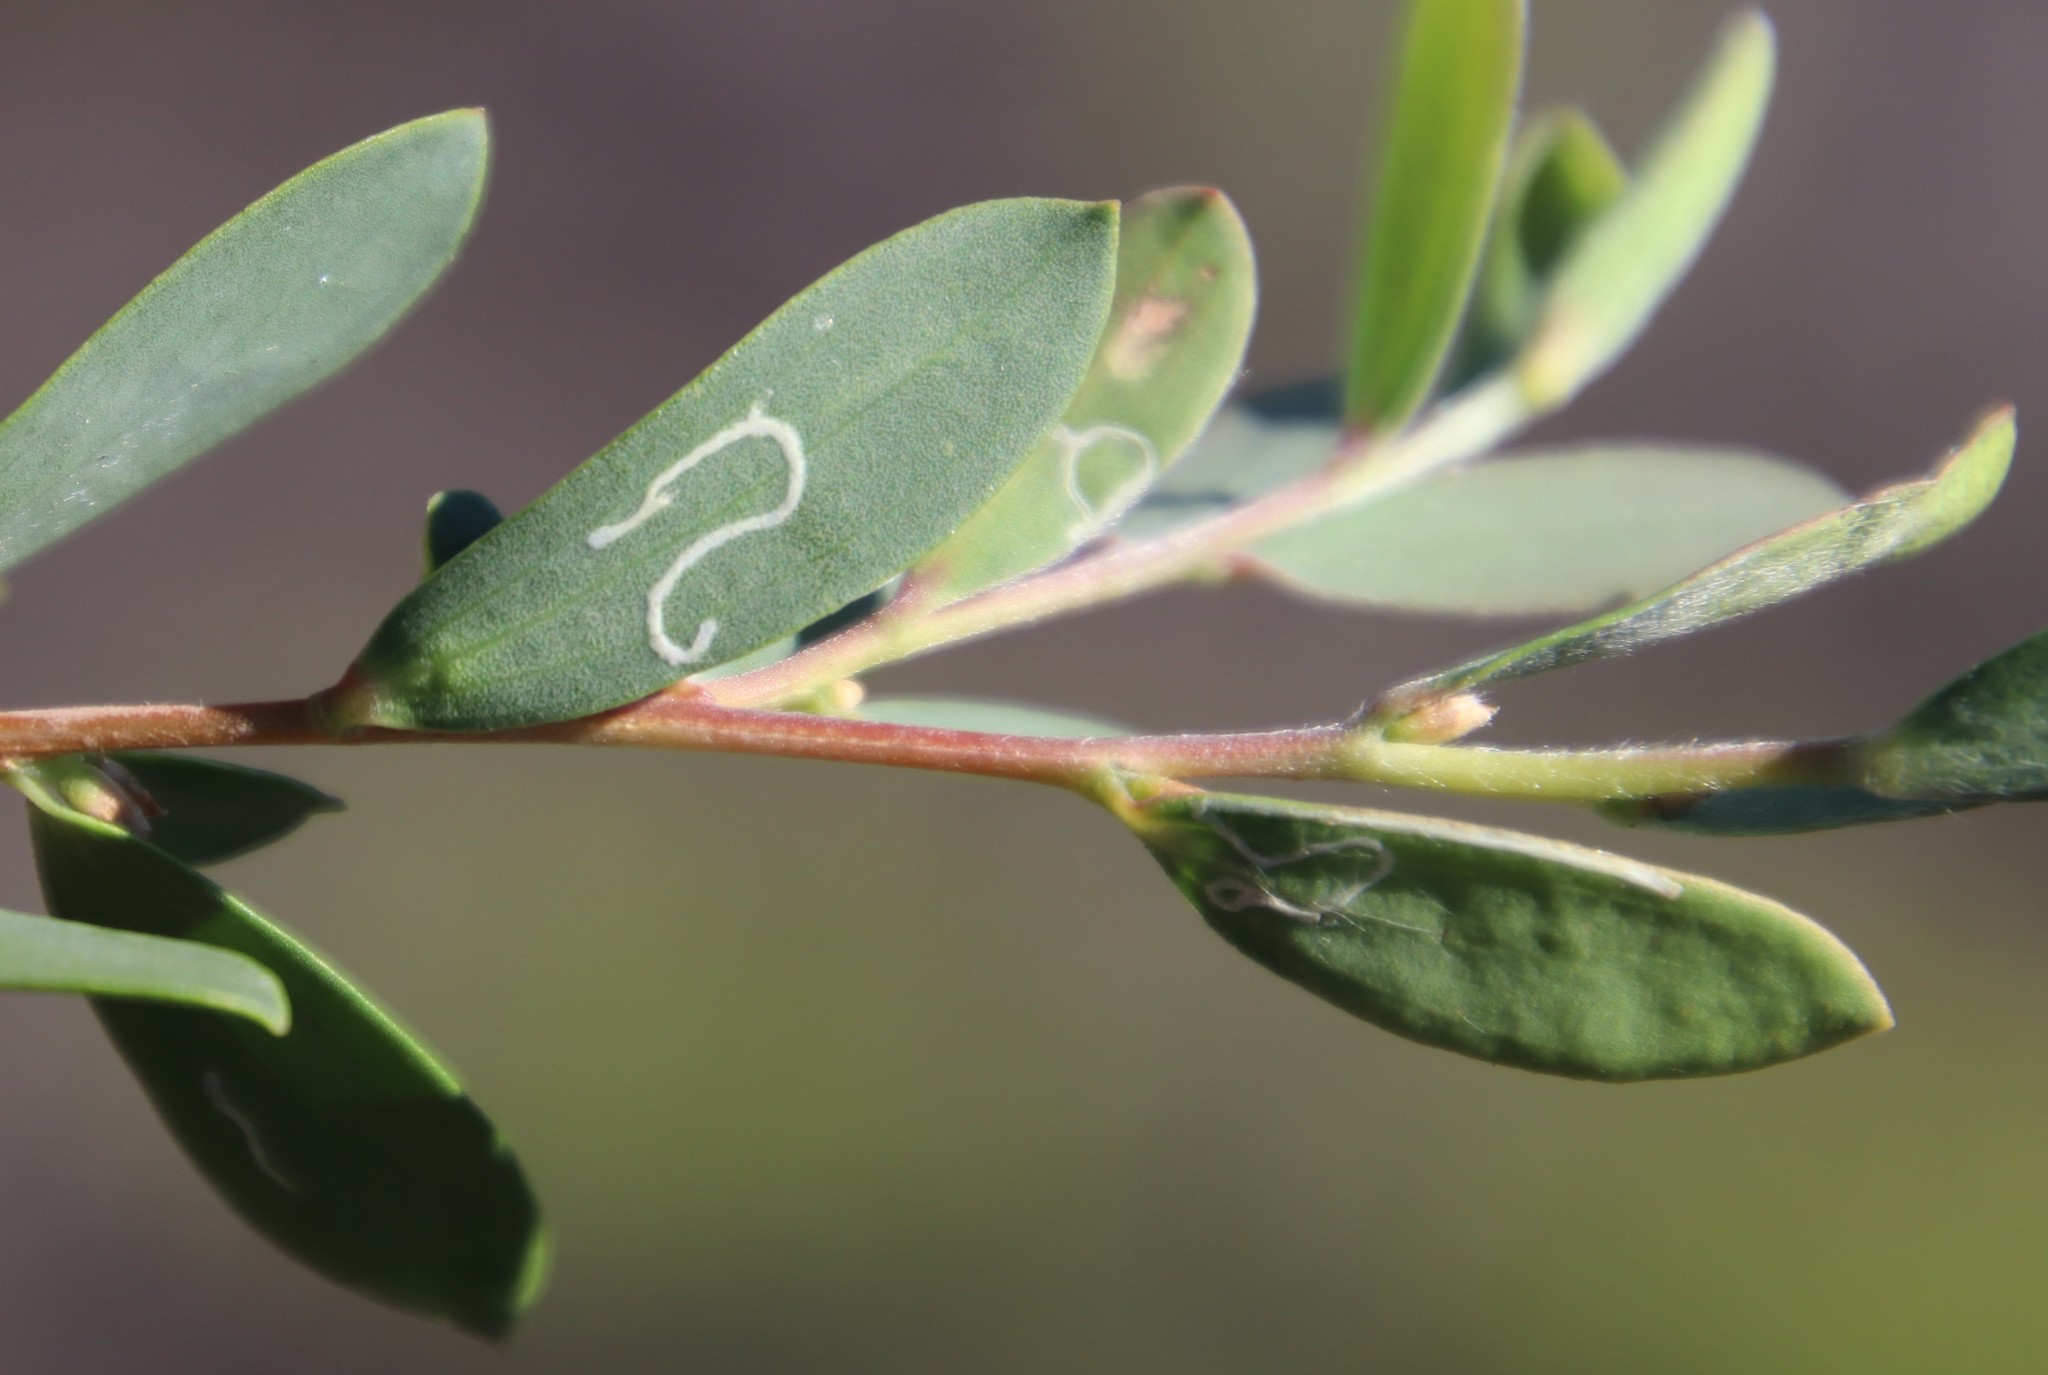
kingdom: Animalia
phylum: Arthropoda
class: Insecta
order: Lepidoptera
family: Gracillariidae
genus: Aristaea
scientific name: Aristaea thalassias
